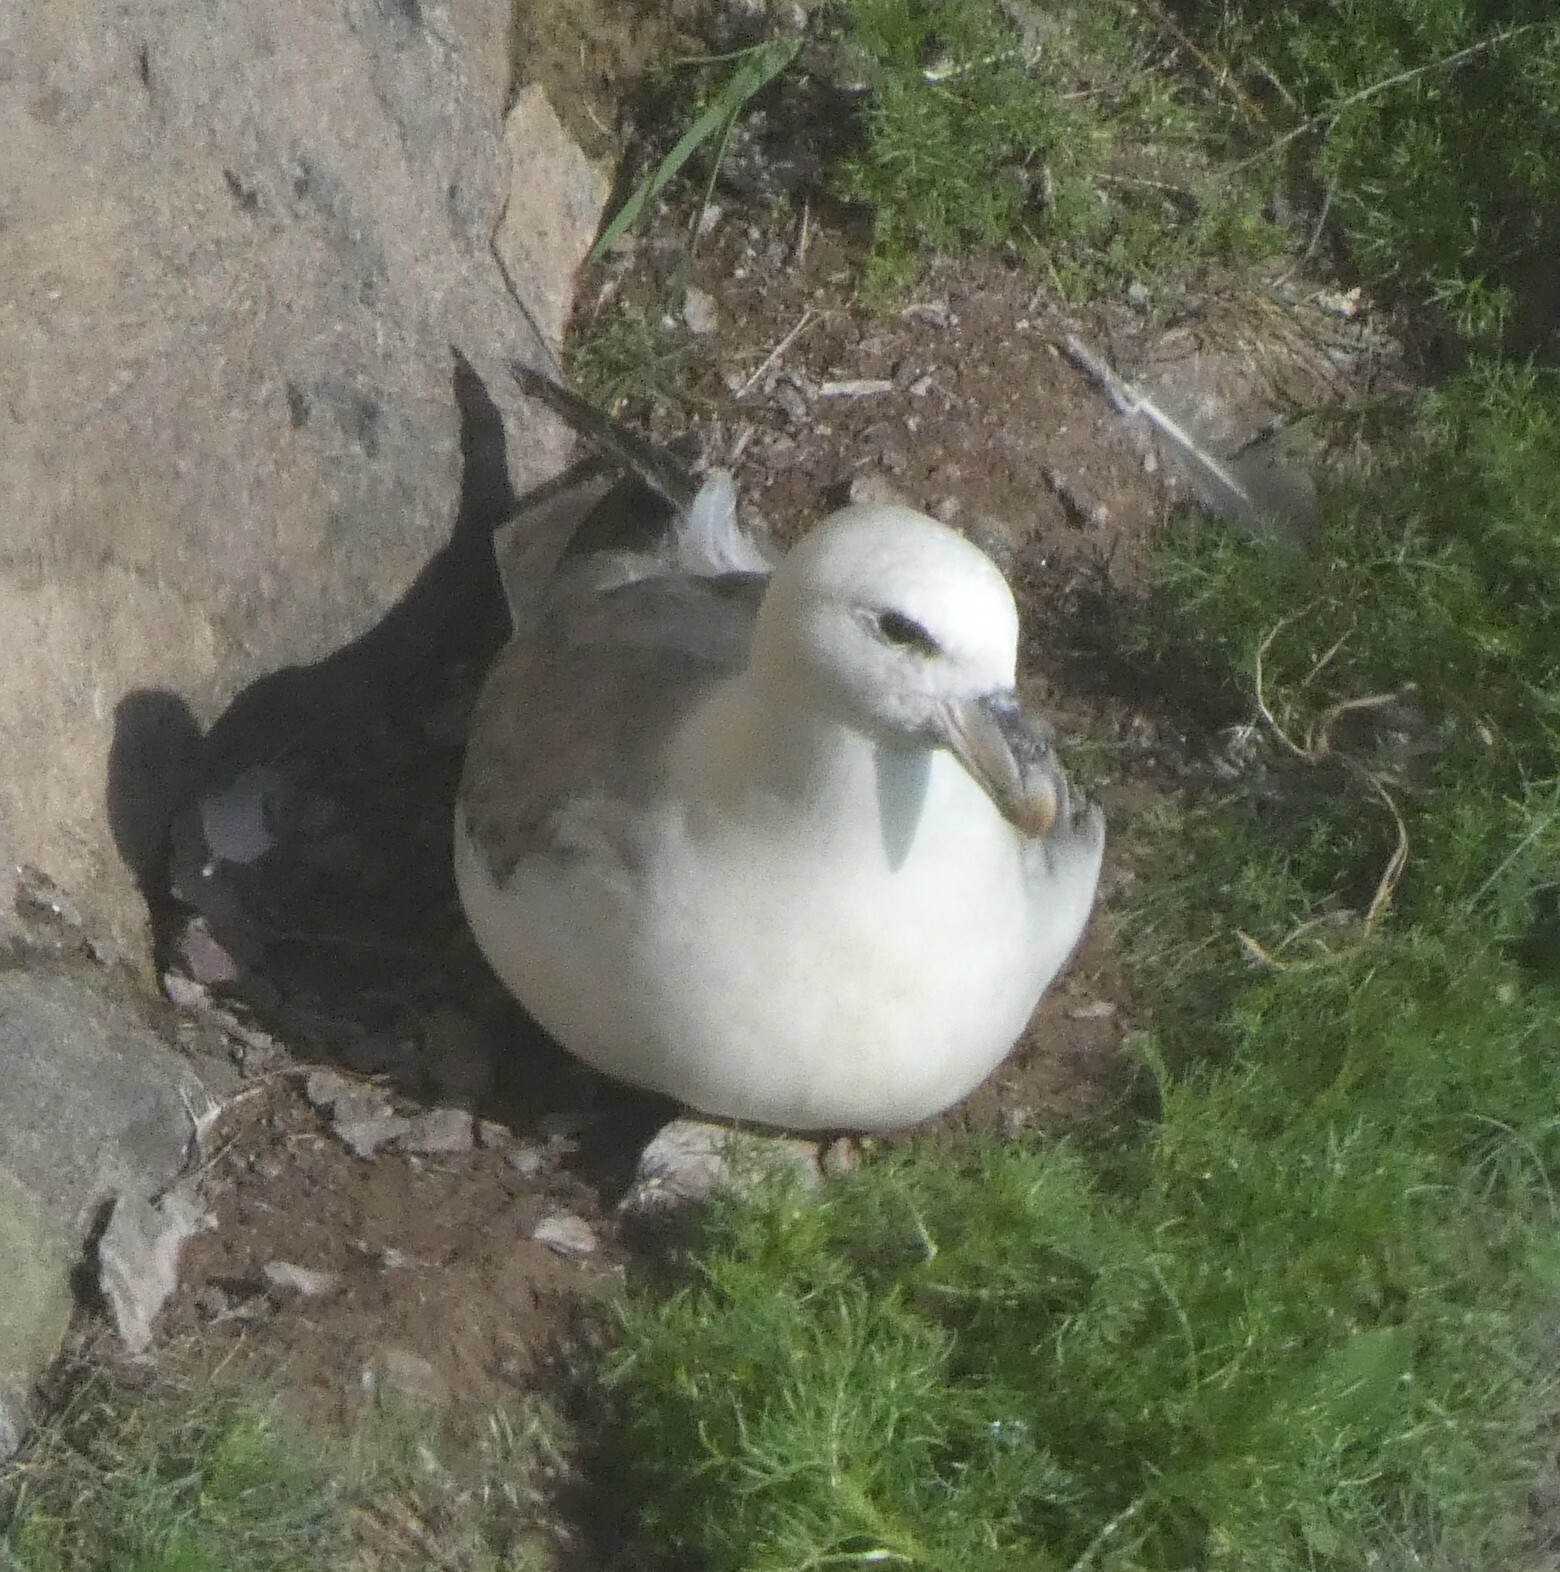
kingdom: Animalia
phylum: Chordata
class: Aves
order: Procellariiformes
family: Procellariidae
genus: Fulmarus
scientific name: Fulmarus glacialis
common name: Northern fulmar
